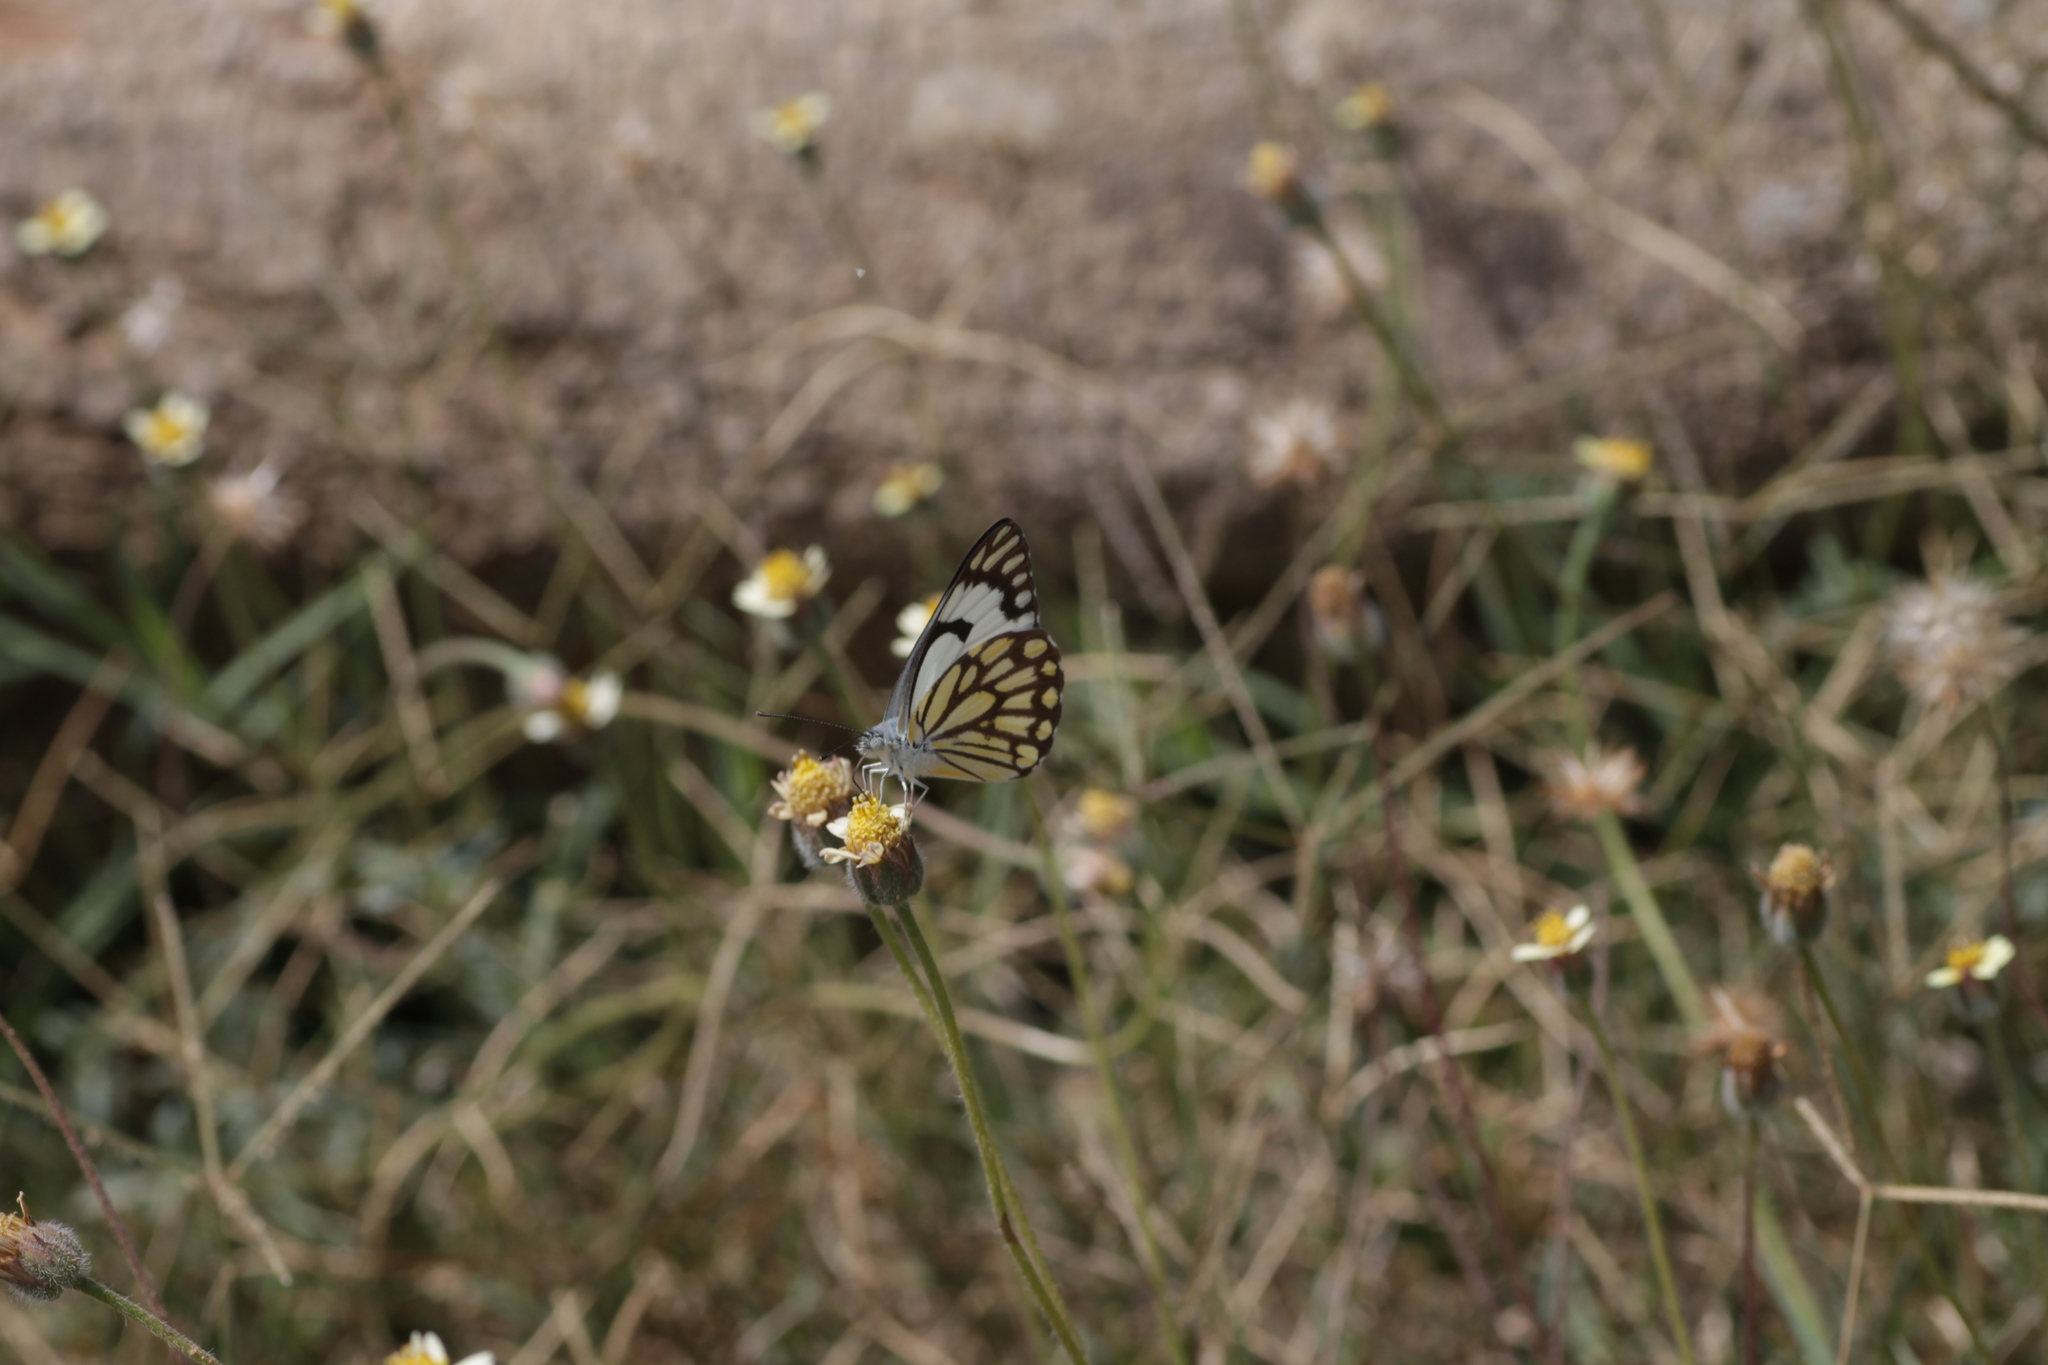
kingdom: Animalia
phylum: Arthropoda
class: Insecta
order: Lepidoptera
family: Pieridae
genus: Belenois
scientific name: Belenois aurota
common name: Brown-veined white
